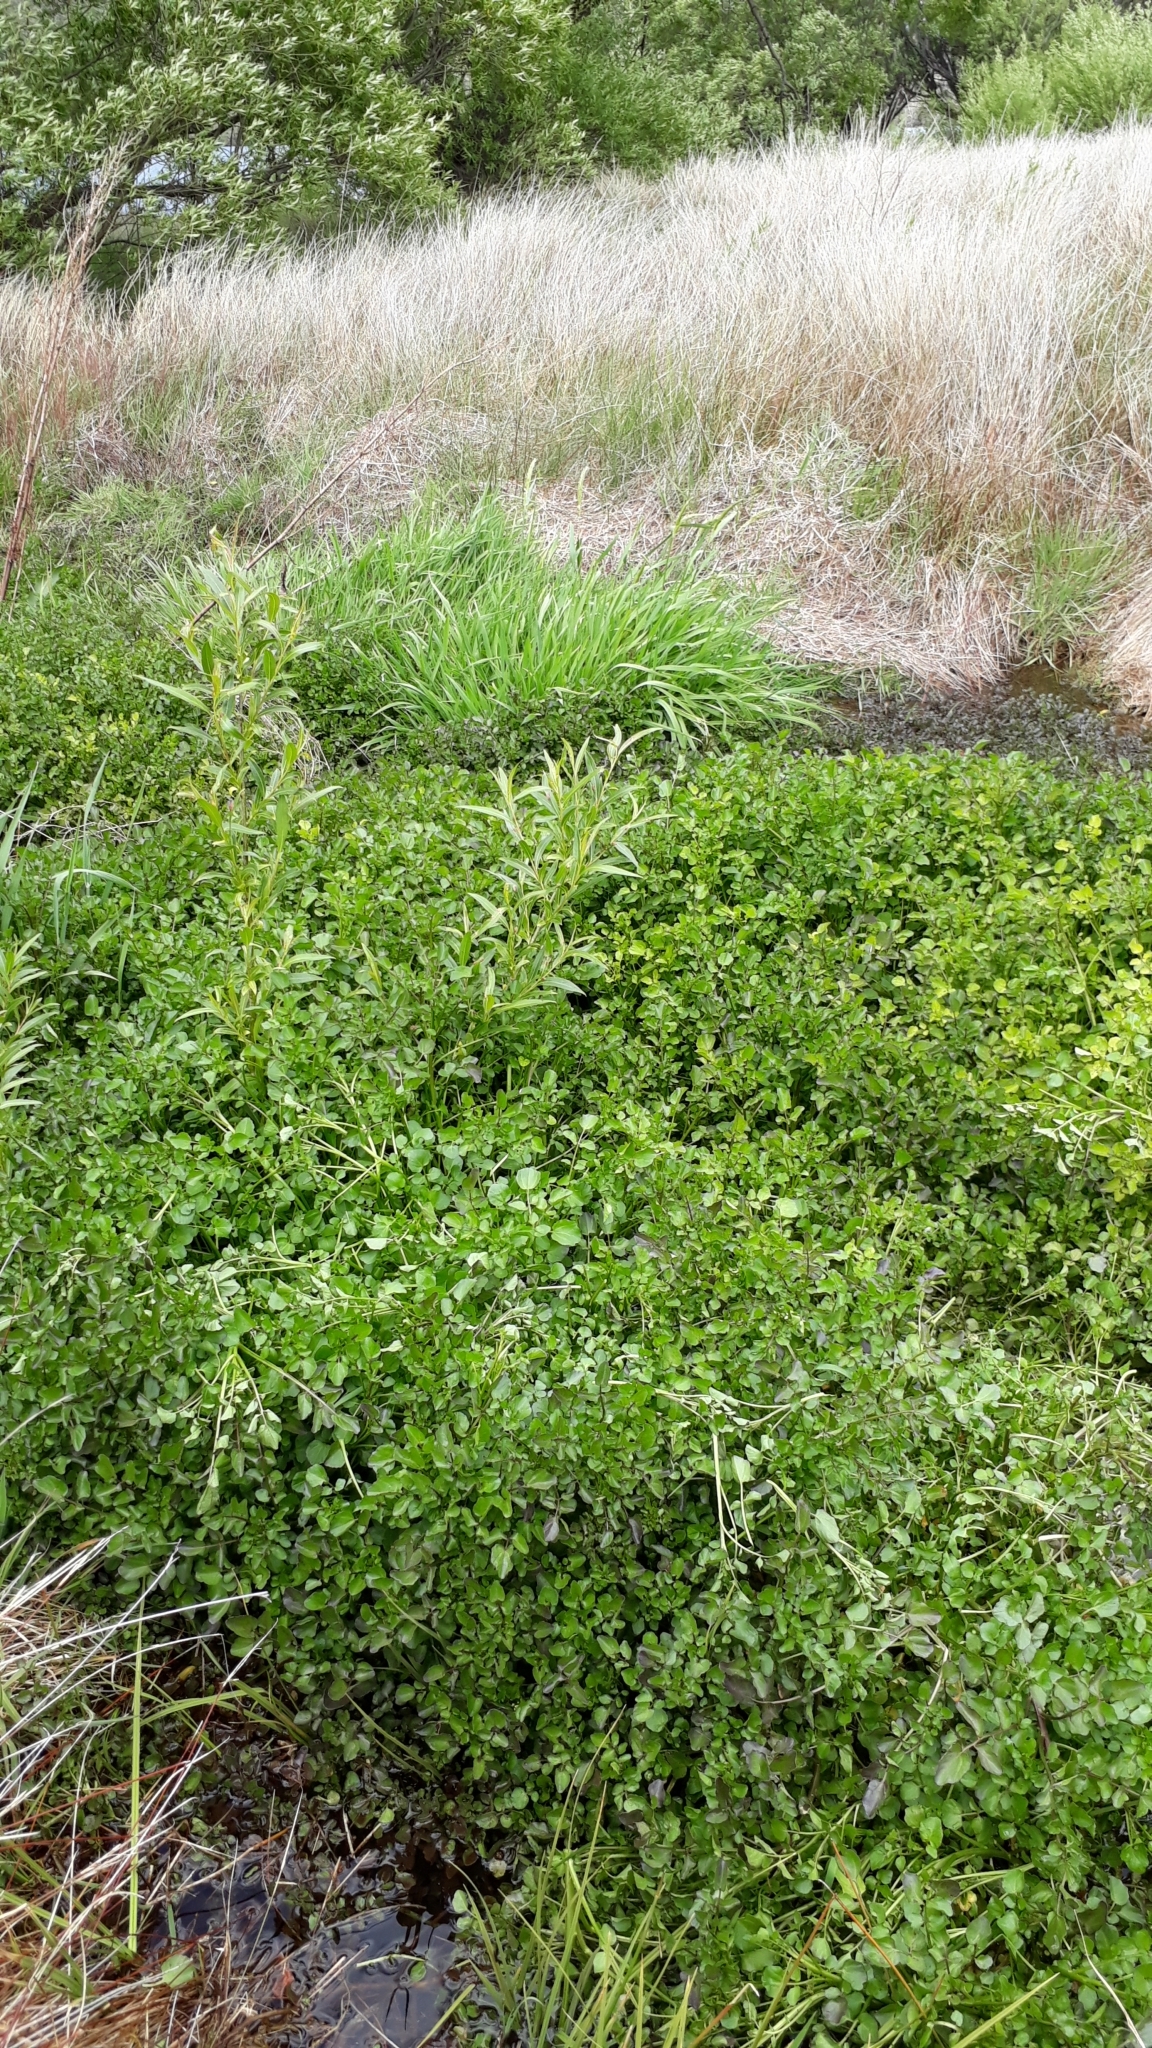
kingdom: Plantae
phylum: Tracheophyta
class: Magnoliopsida
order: Brassicales
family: Brassicaceae
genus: Nasturtium
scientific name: Nasturtium officinale
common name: Watercress
